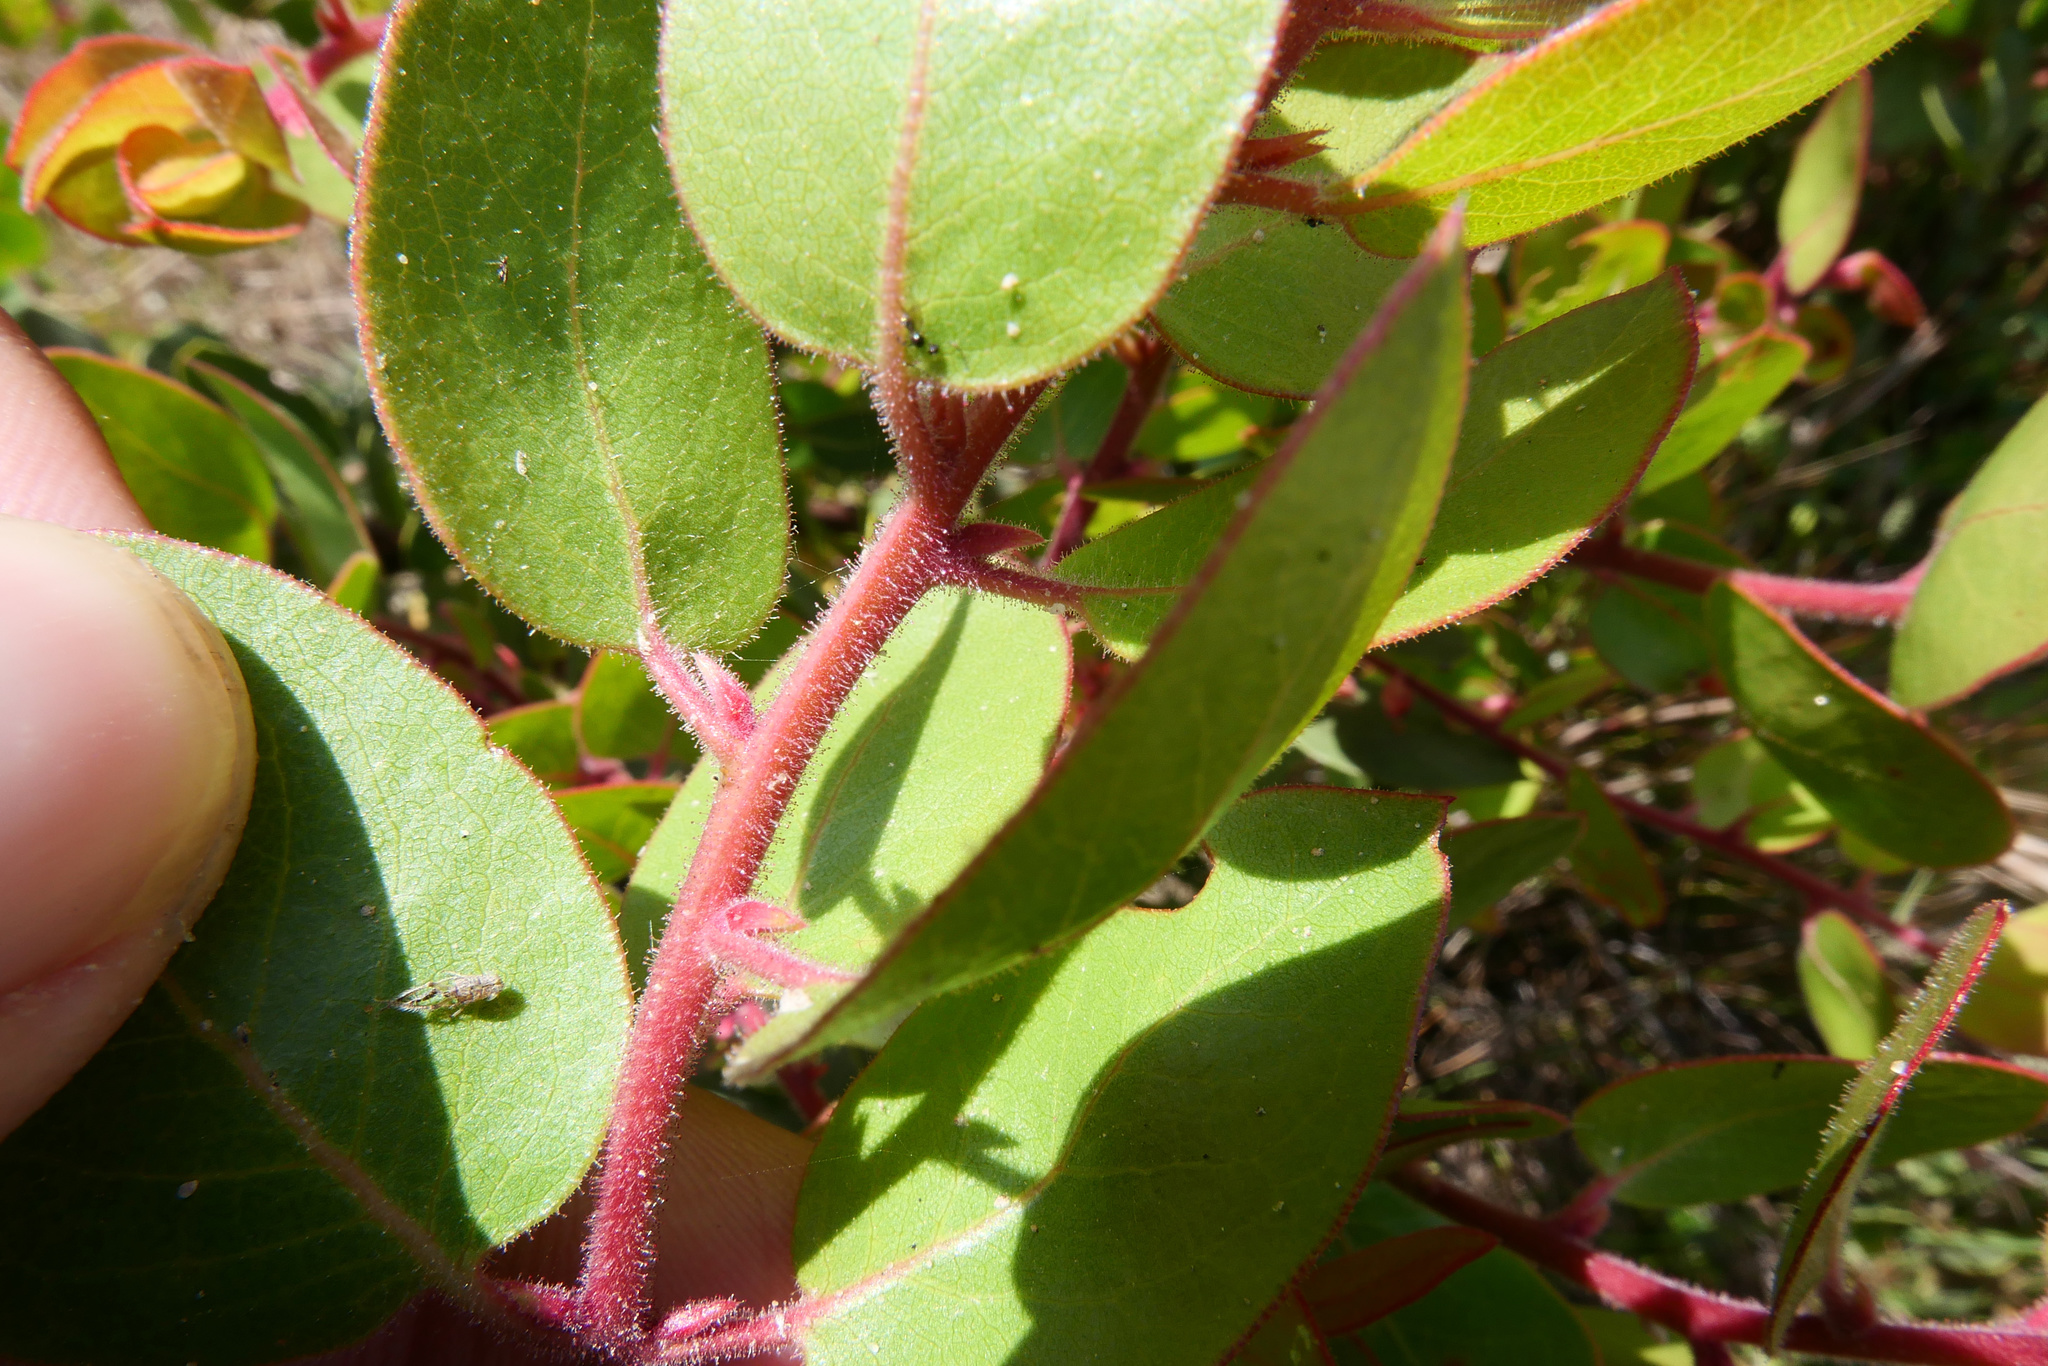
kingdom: Plantae
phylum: Tracheophyta
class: Magnoliopsida
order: Ericales
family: Ericaceae
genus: Arctostaphylos
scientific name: Arctostaphylos montereyensis
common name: Monterey manzanita
